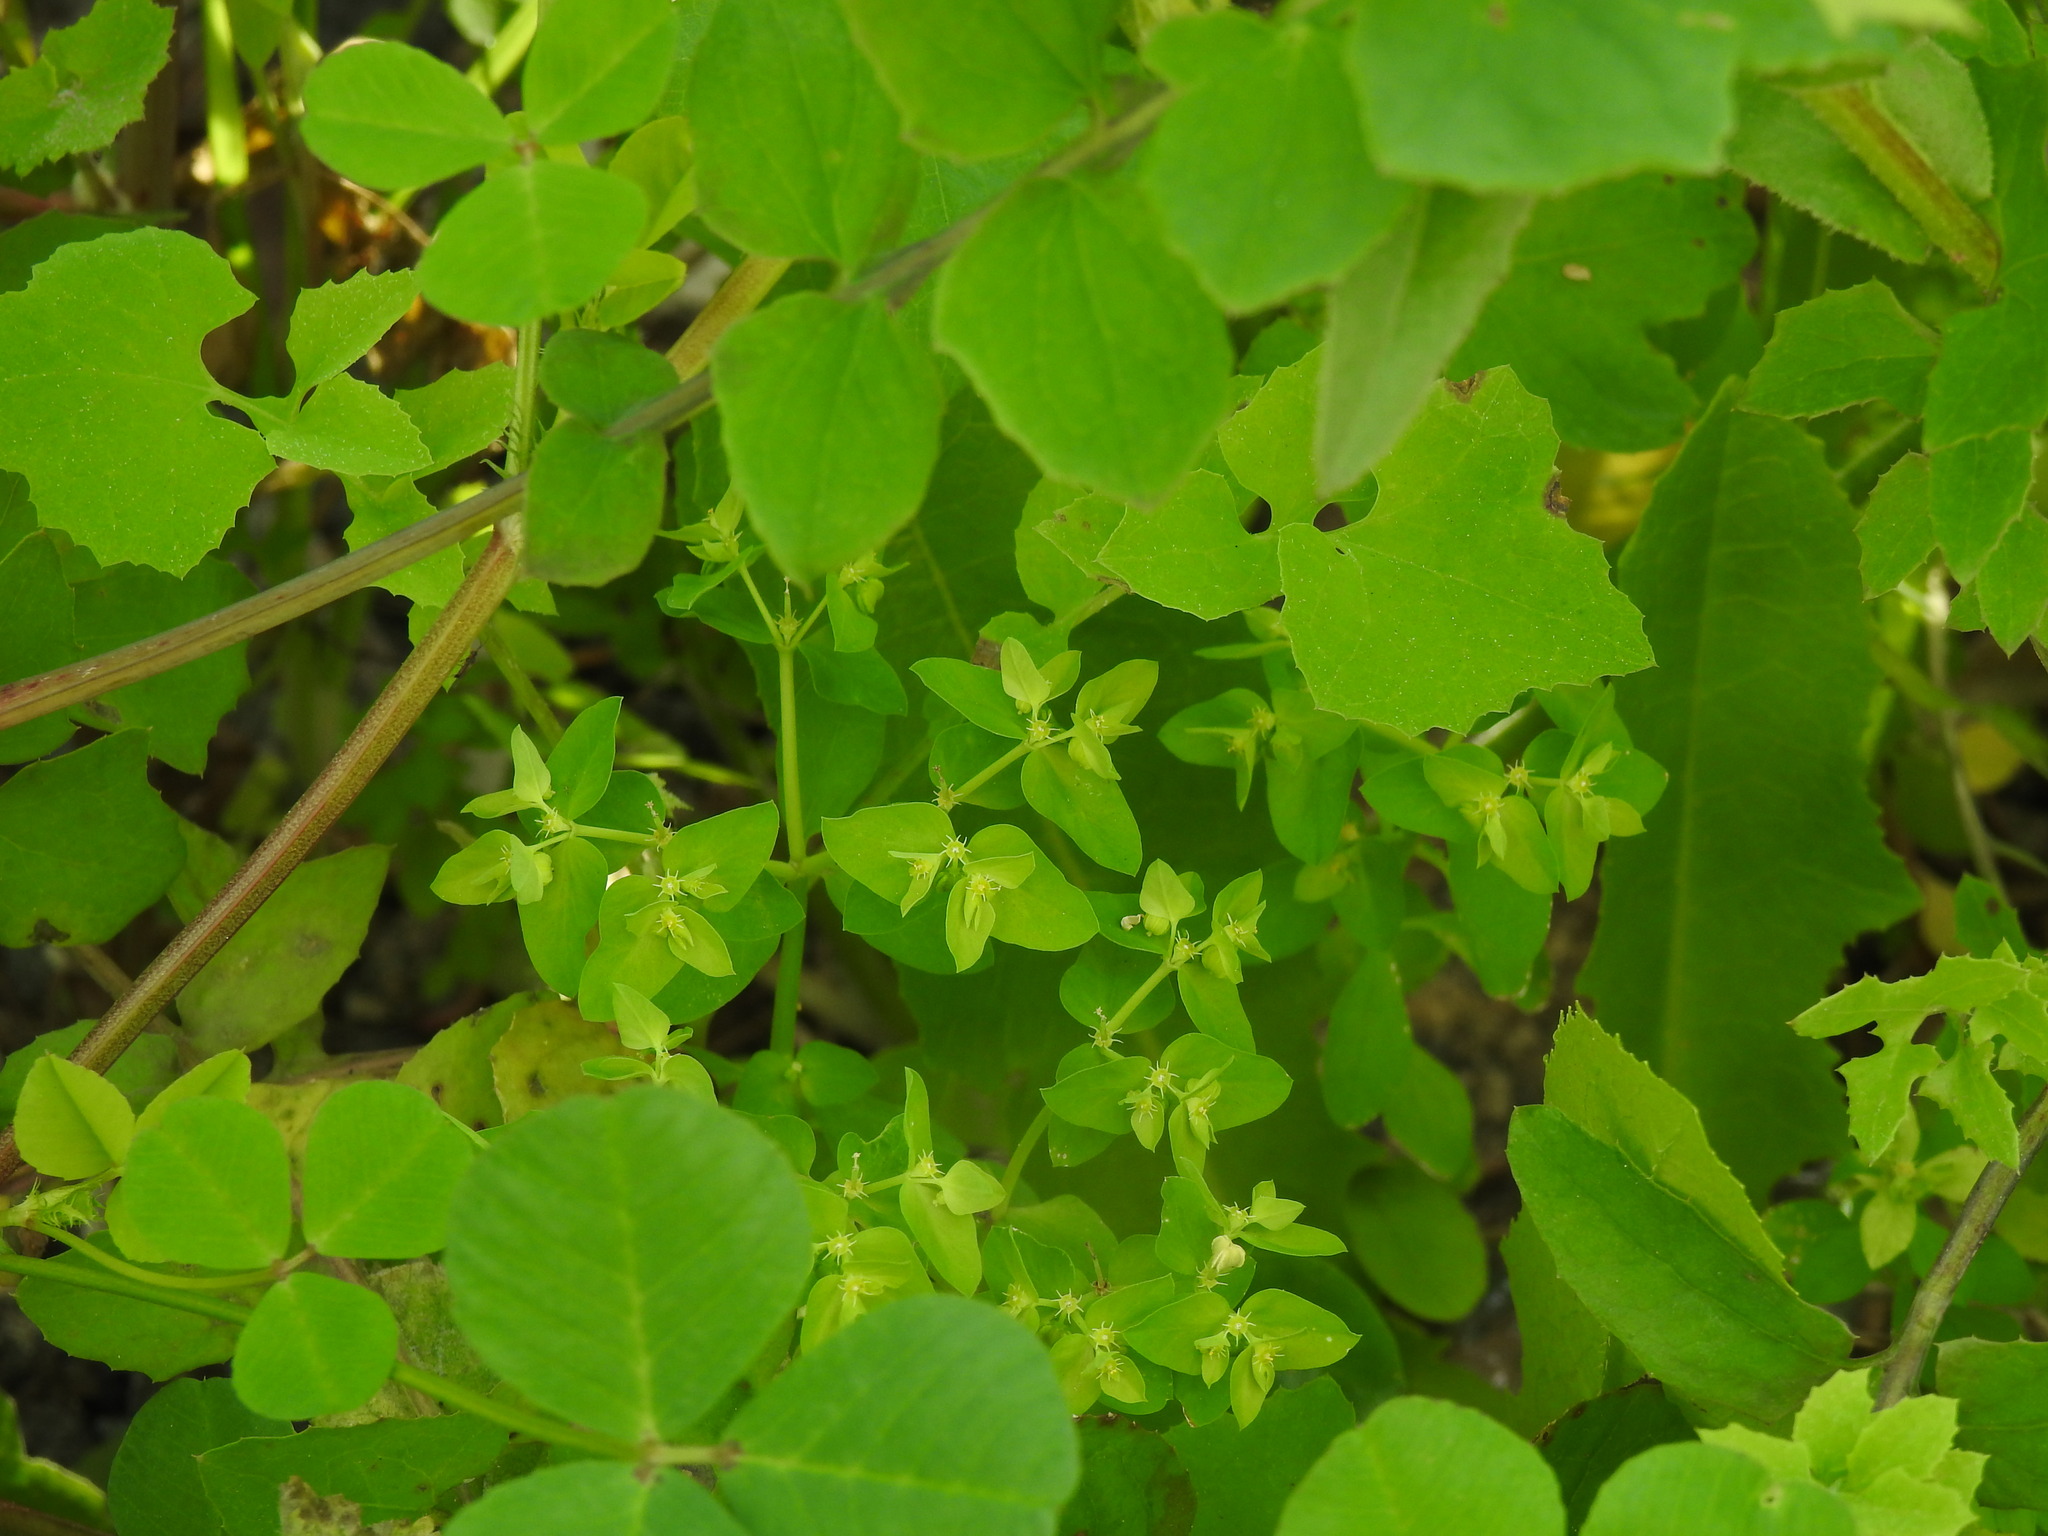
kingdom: Plantae
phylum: Tracheophyta
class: Magnoliopsida
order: Malpighiales
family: Euphorbiaceae
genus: Euphorbia
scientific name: Euphorbia peplus
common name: Petty spurge
